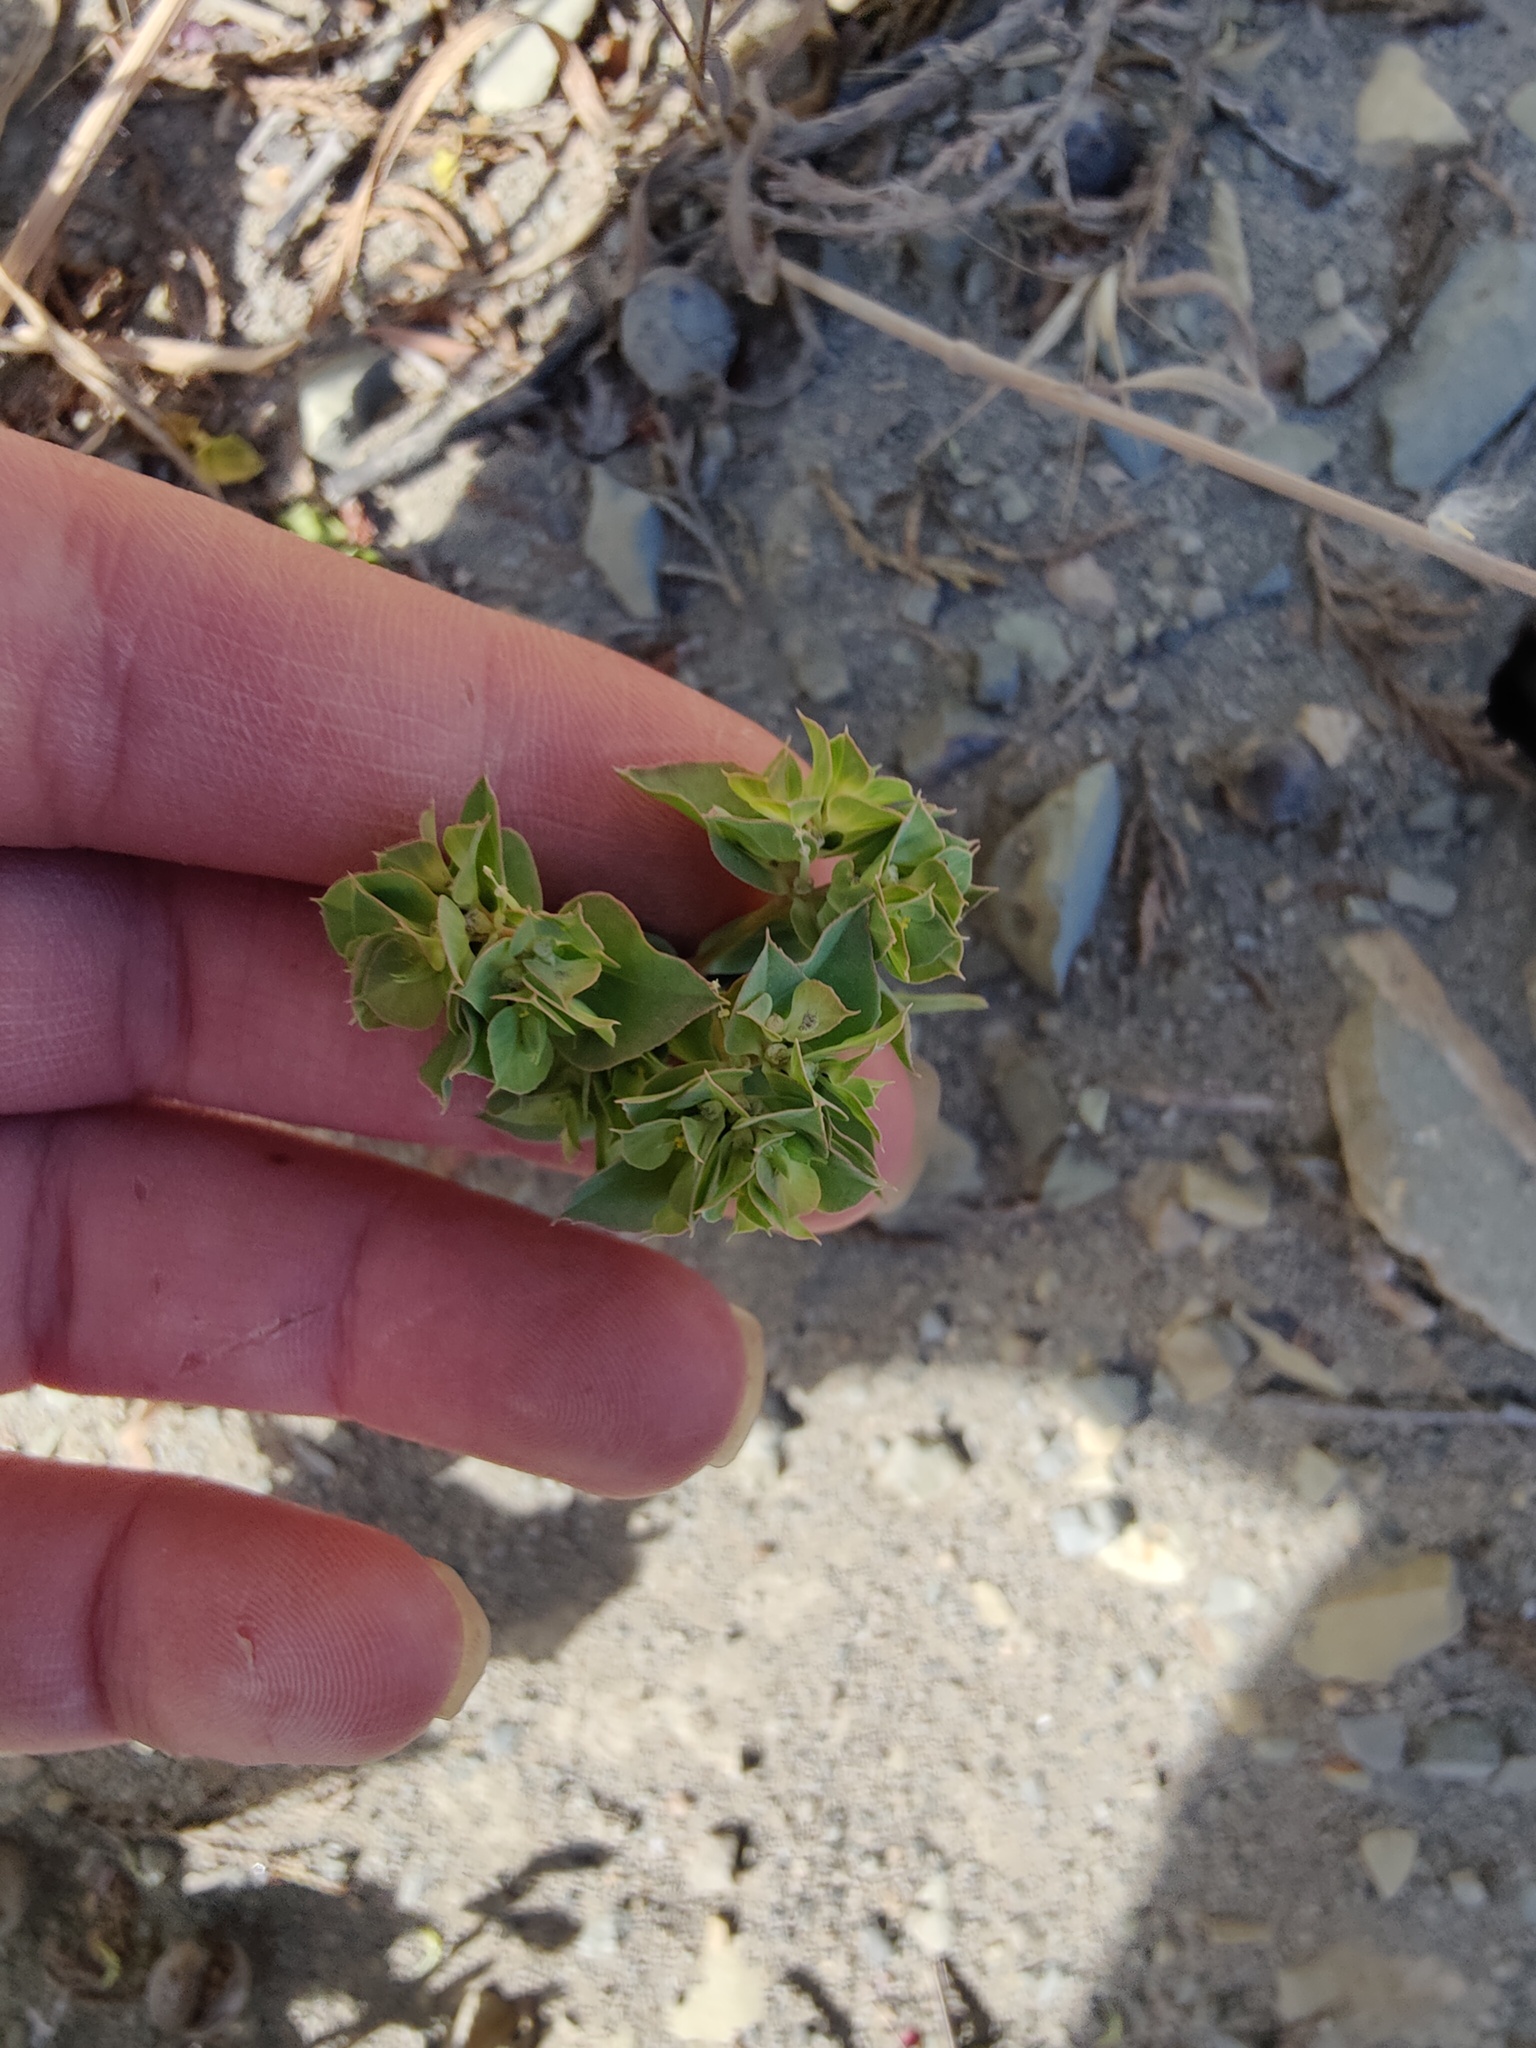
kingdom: Plantae
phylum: Tracheophyta
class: Magnoliopsida
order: Malpighiales
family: Euphorbiaceae
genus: Euphorbia
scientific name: Euphorbia taurinensis
